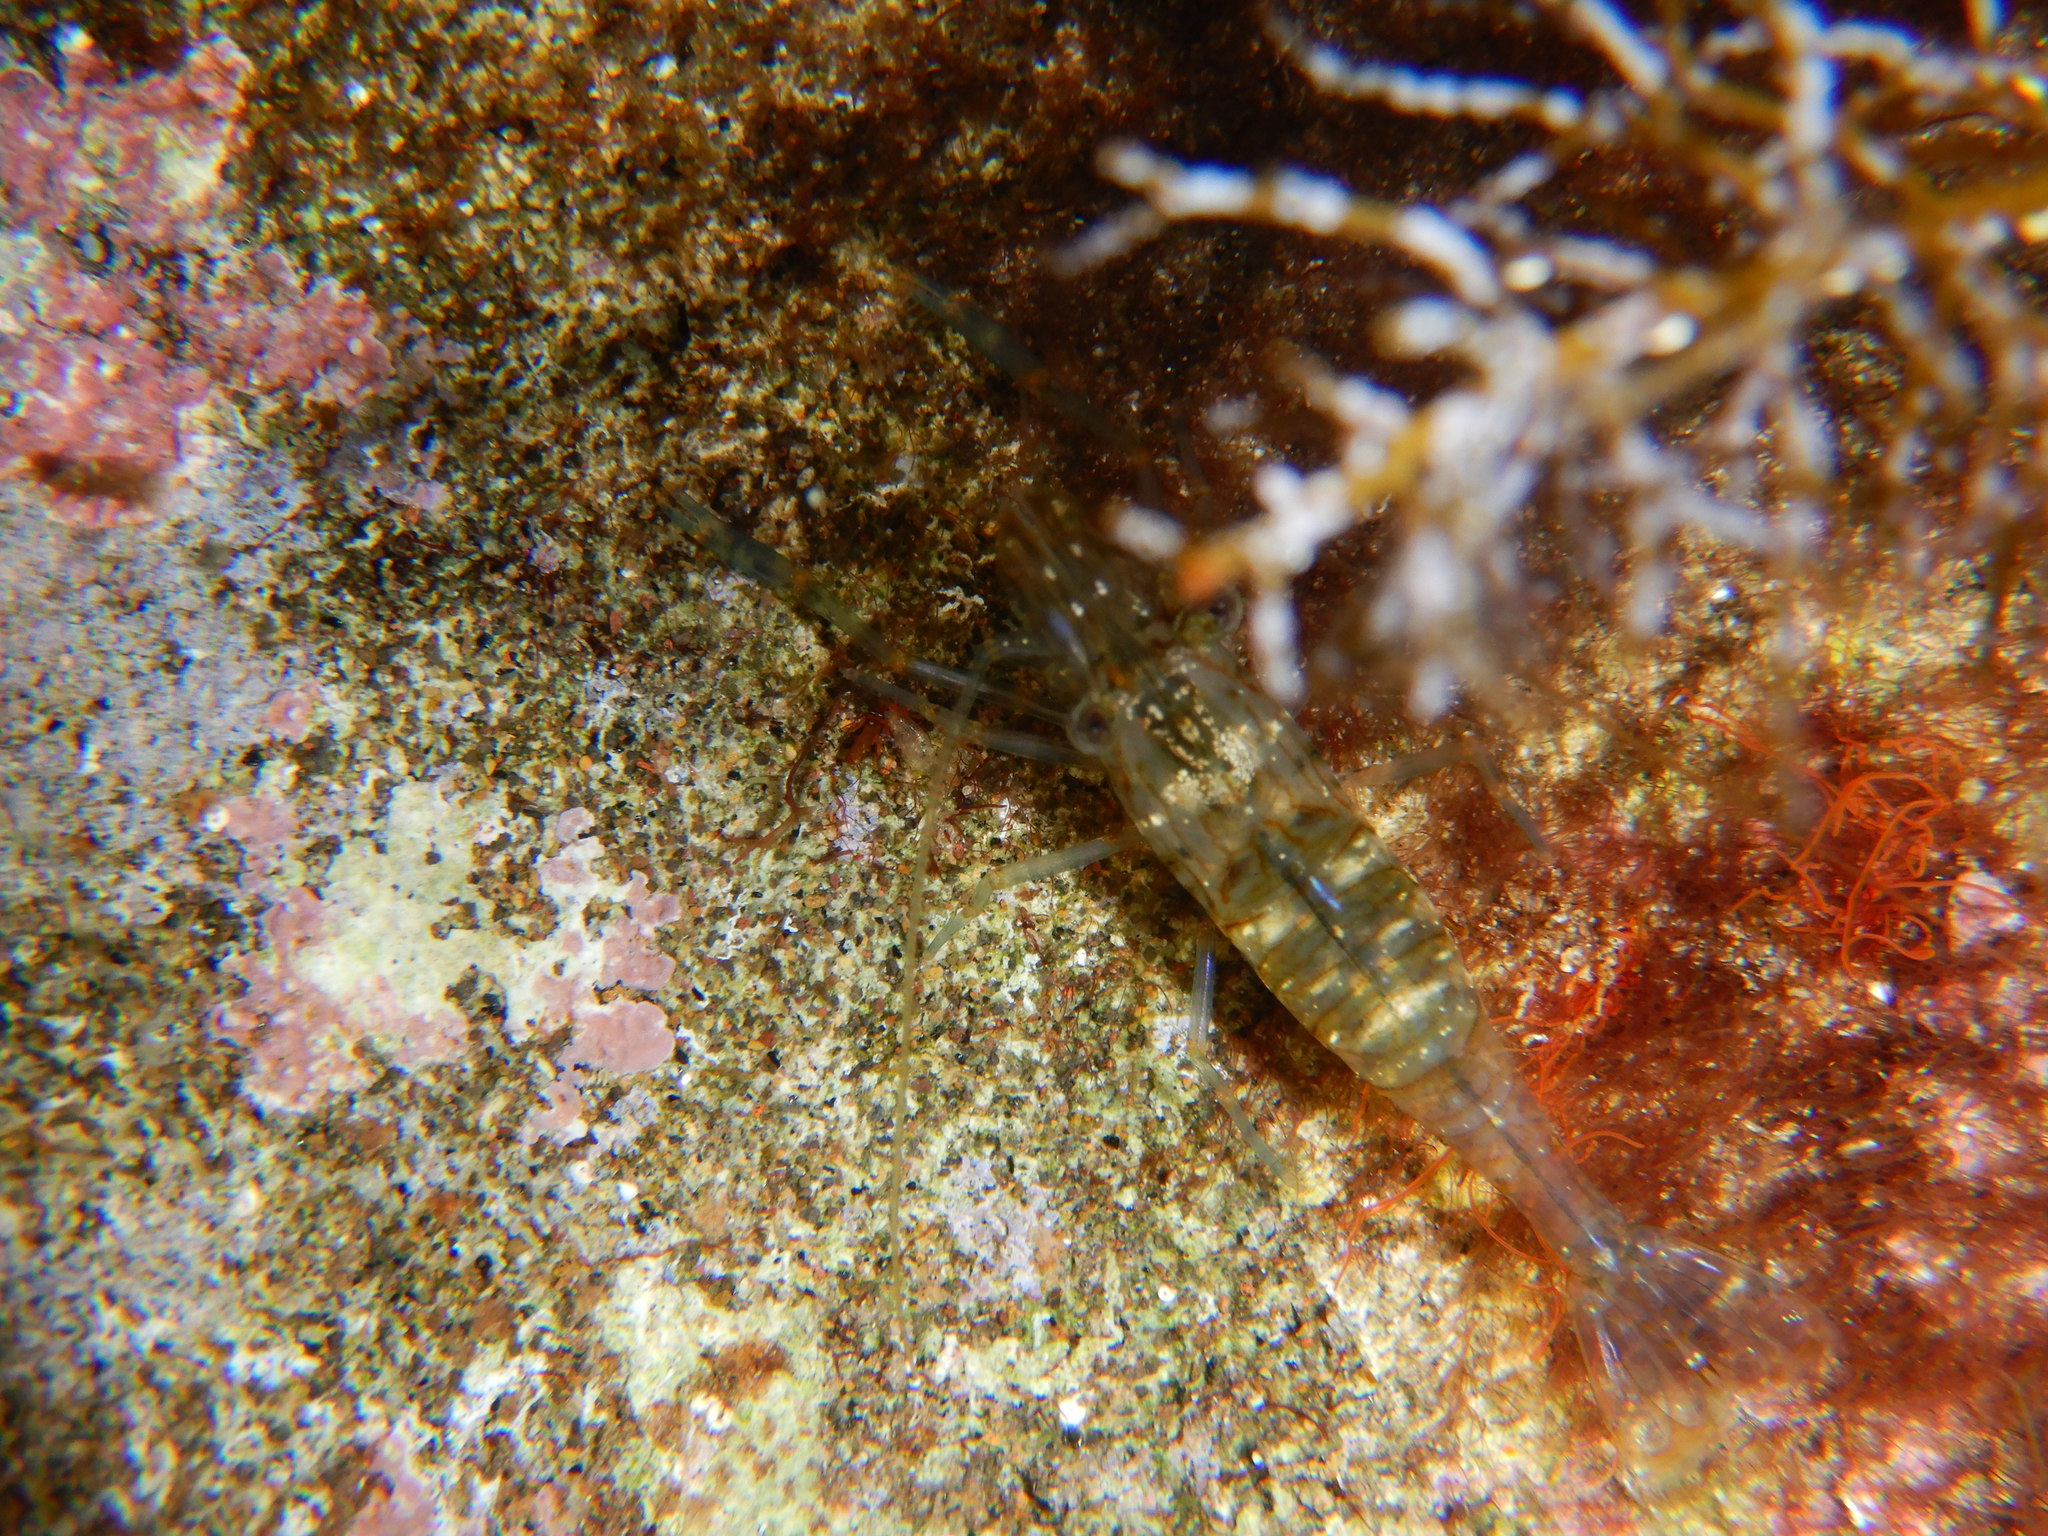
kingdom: Animalia
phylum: Arthropoda
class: Malacostraca
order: Decapoda
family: Palaemonidae
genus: Palaemon
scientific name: Palaemon elegans
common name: Grass prawm
